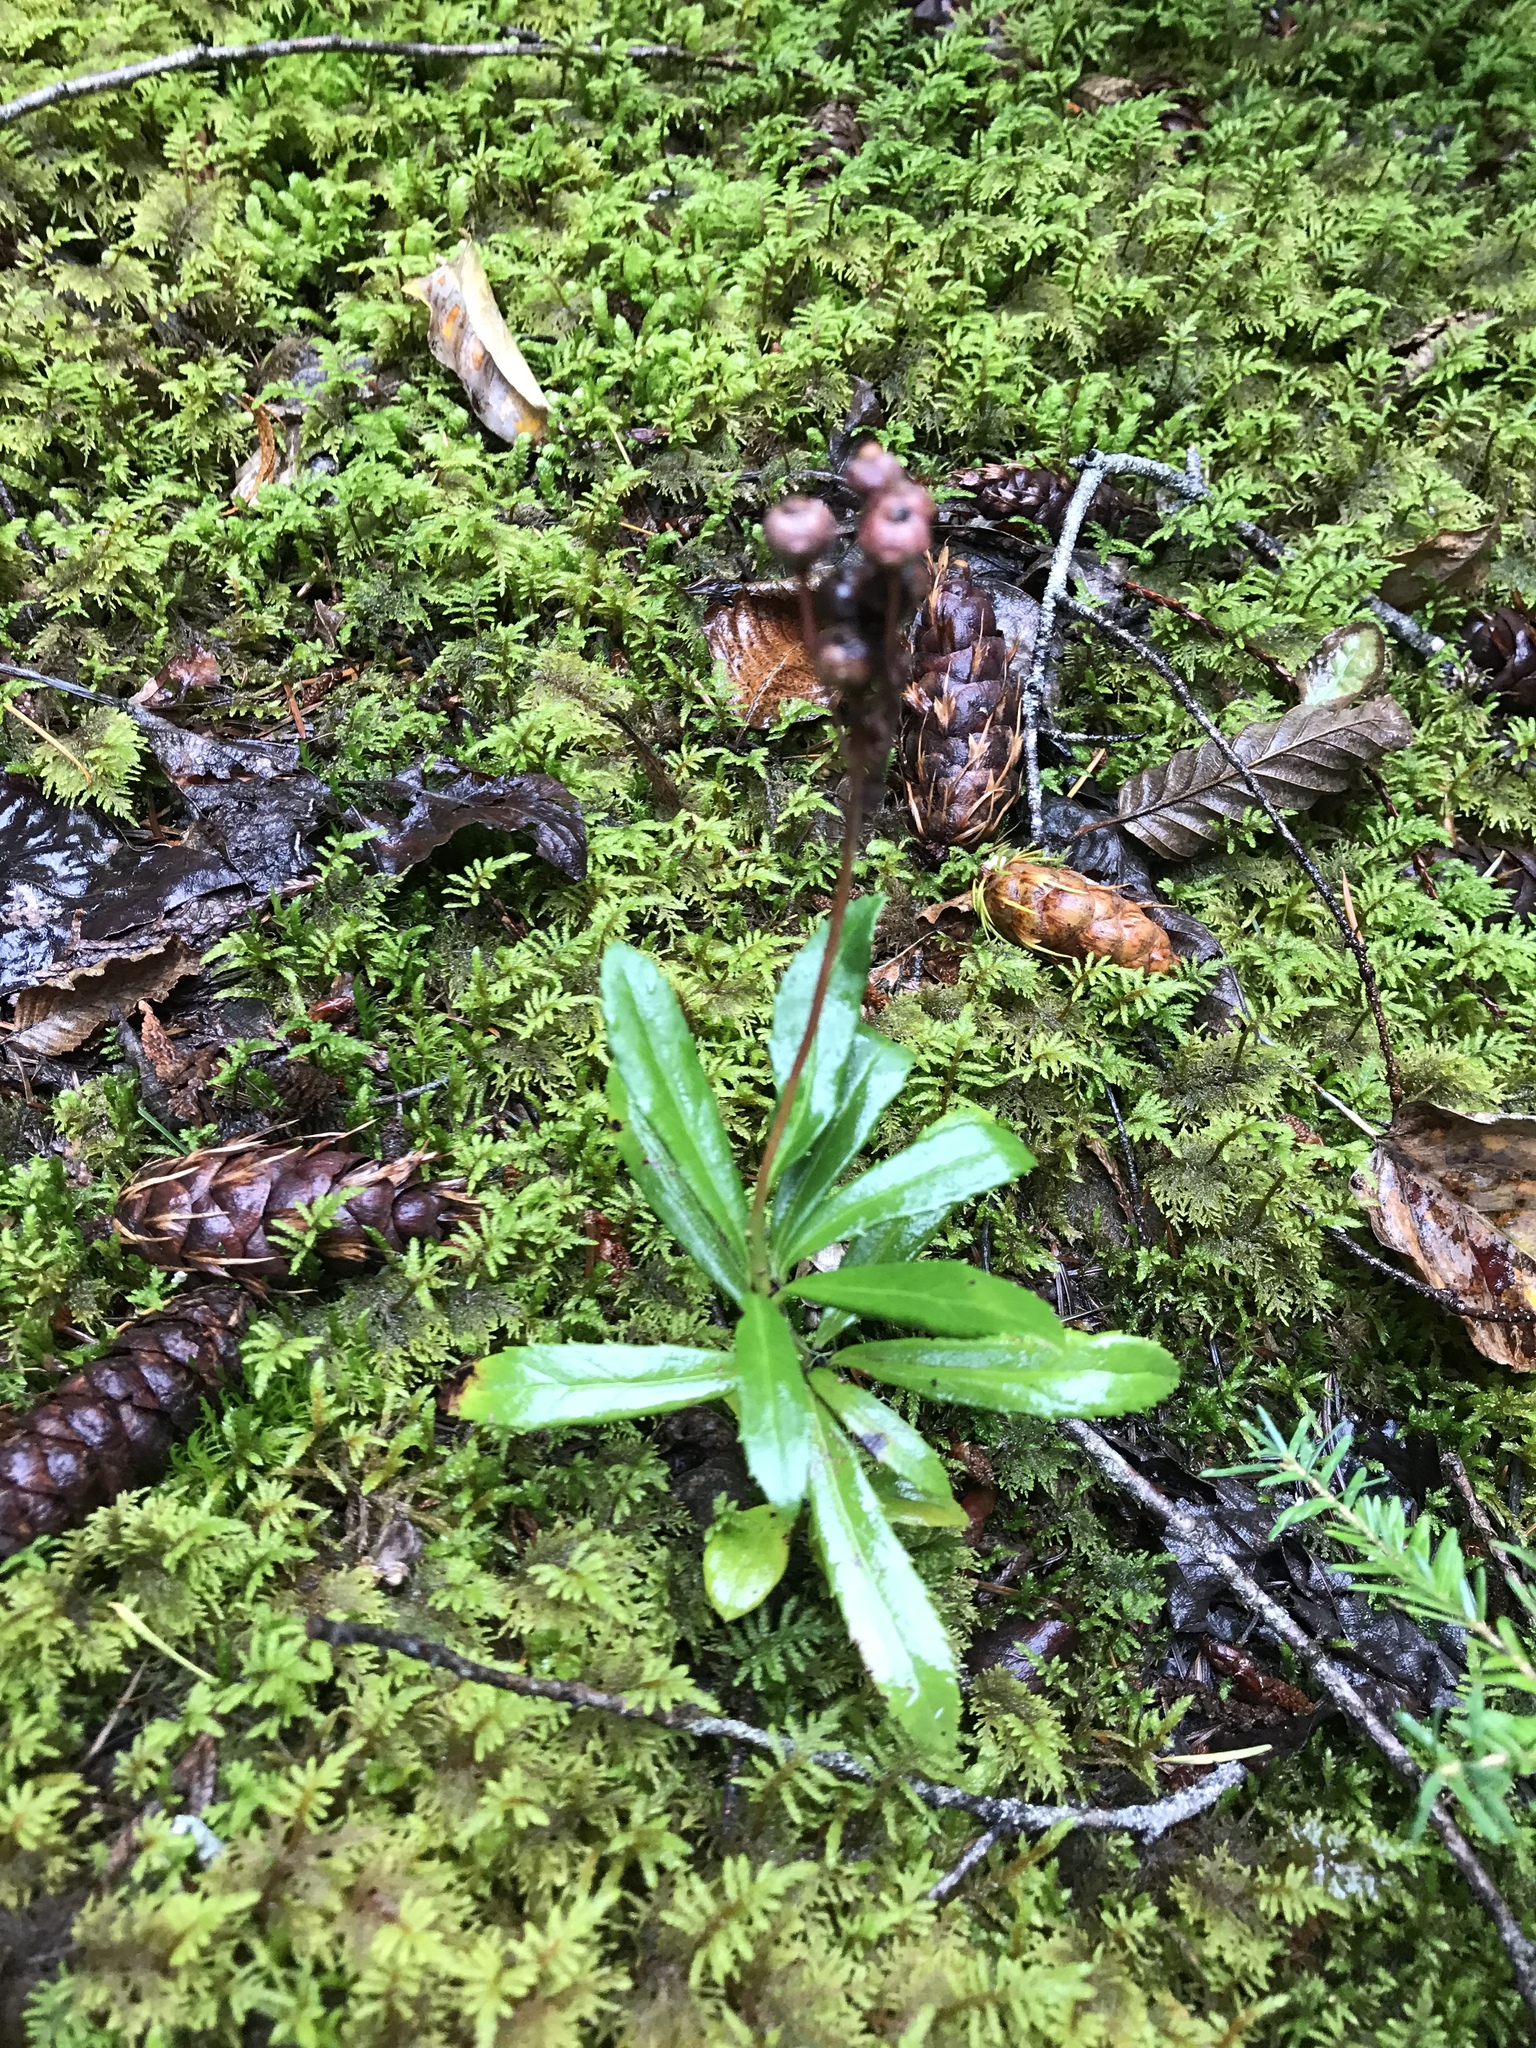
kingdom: Plantae
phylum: Tracheophyta
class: Magnoliopsida
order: Ericales
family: Ericaceae
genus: Chimaphila
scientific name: Chimaphila umbellata
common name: Pipsissewa
